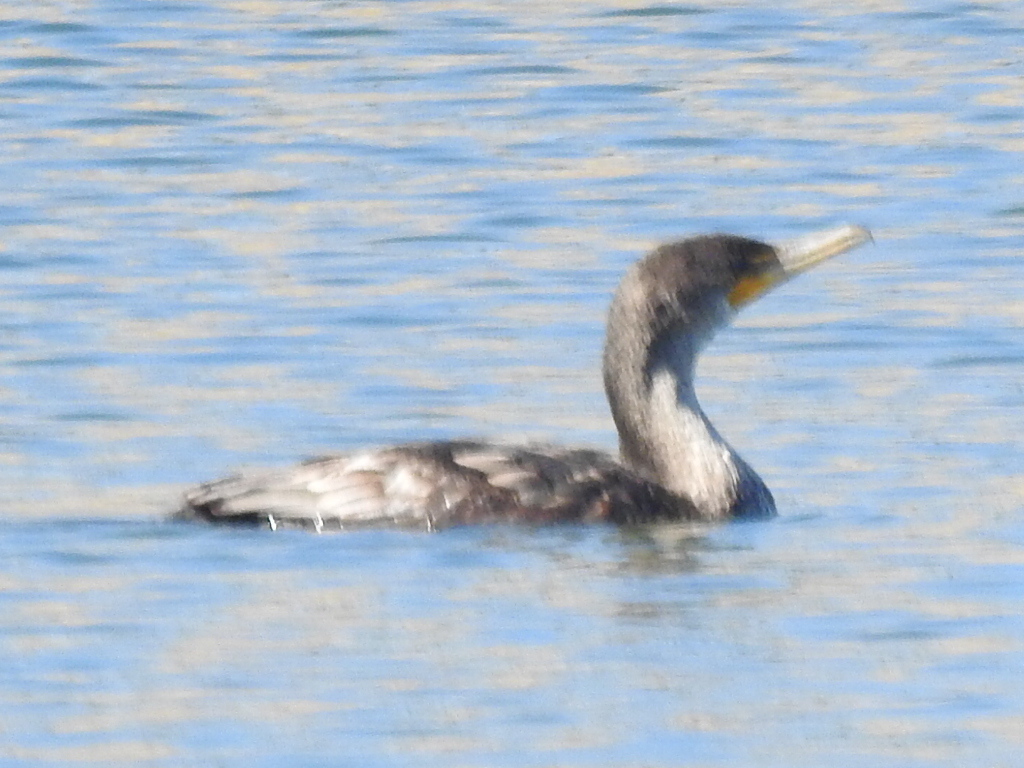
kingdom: Animalia
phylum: Chordata
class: Aves
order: Suliformes
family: Phalacrocoracidae
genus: Phalacrocorax
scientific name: Phalacrocorax auritus
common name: Double-crested cormorant
